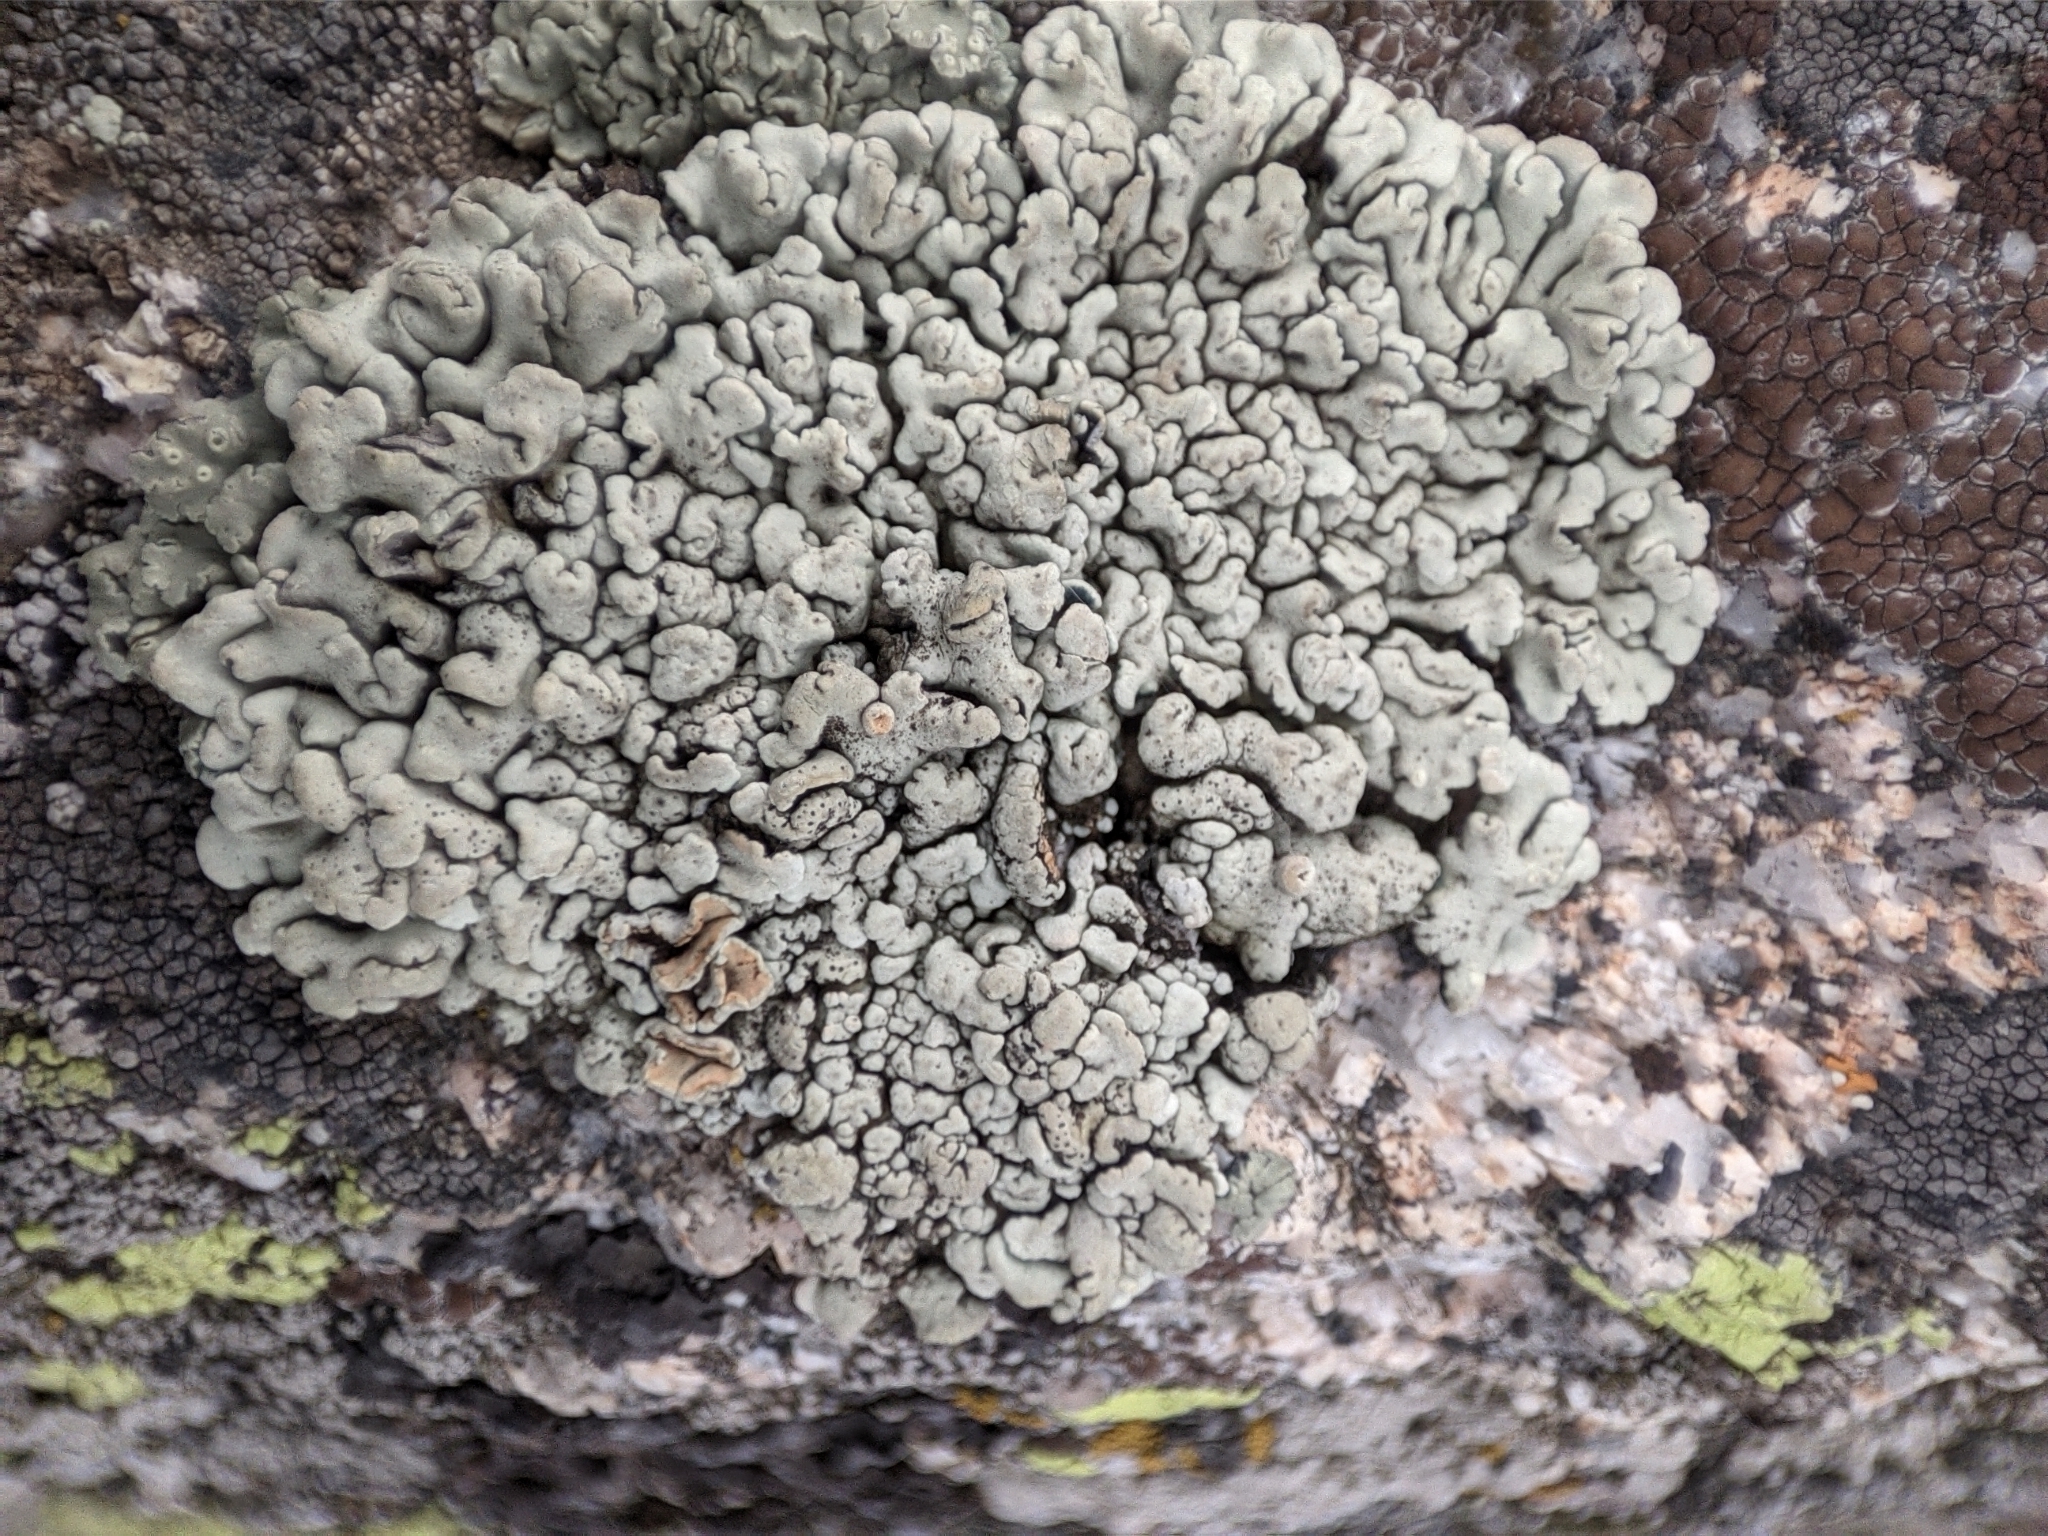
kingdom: Fungi
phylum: Ascomycota
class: Lecanoromycetes
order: Lecanorales
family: Lecanoraceae
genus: Omphalodina
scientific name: Omphalodina chrysoleuca
